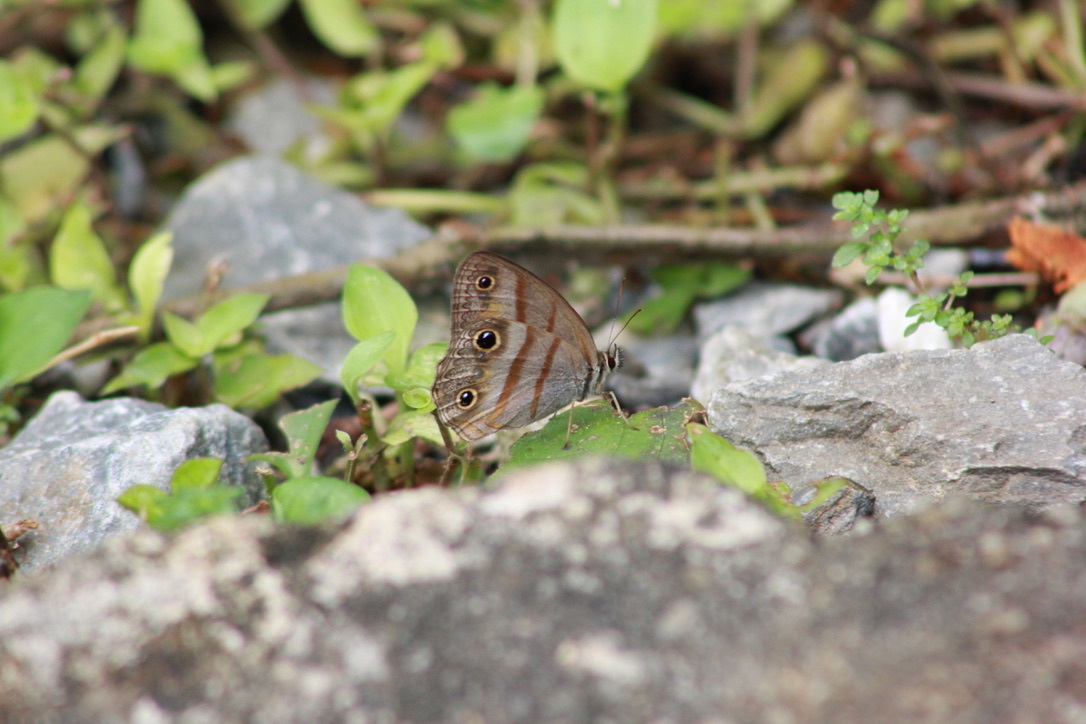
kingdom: Animalia
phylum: Arthropoda
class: Insecta
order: Lepidoptera
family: Nymphalidae
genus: Argyreuptychia
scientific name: Argyreuptychia penelope
